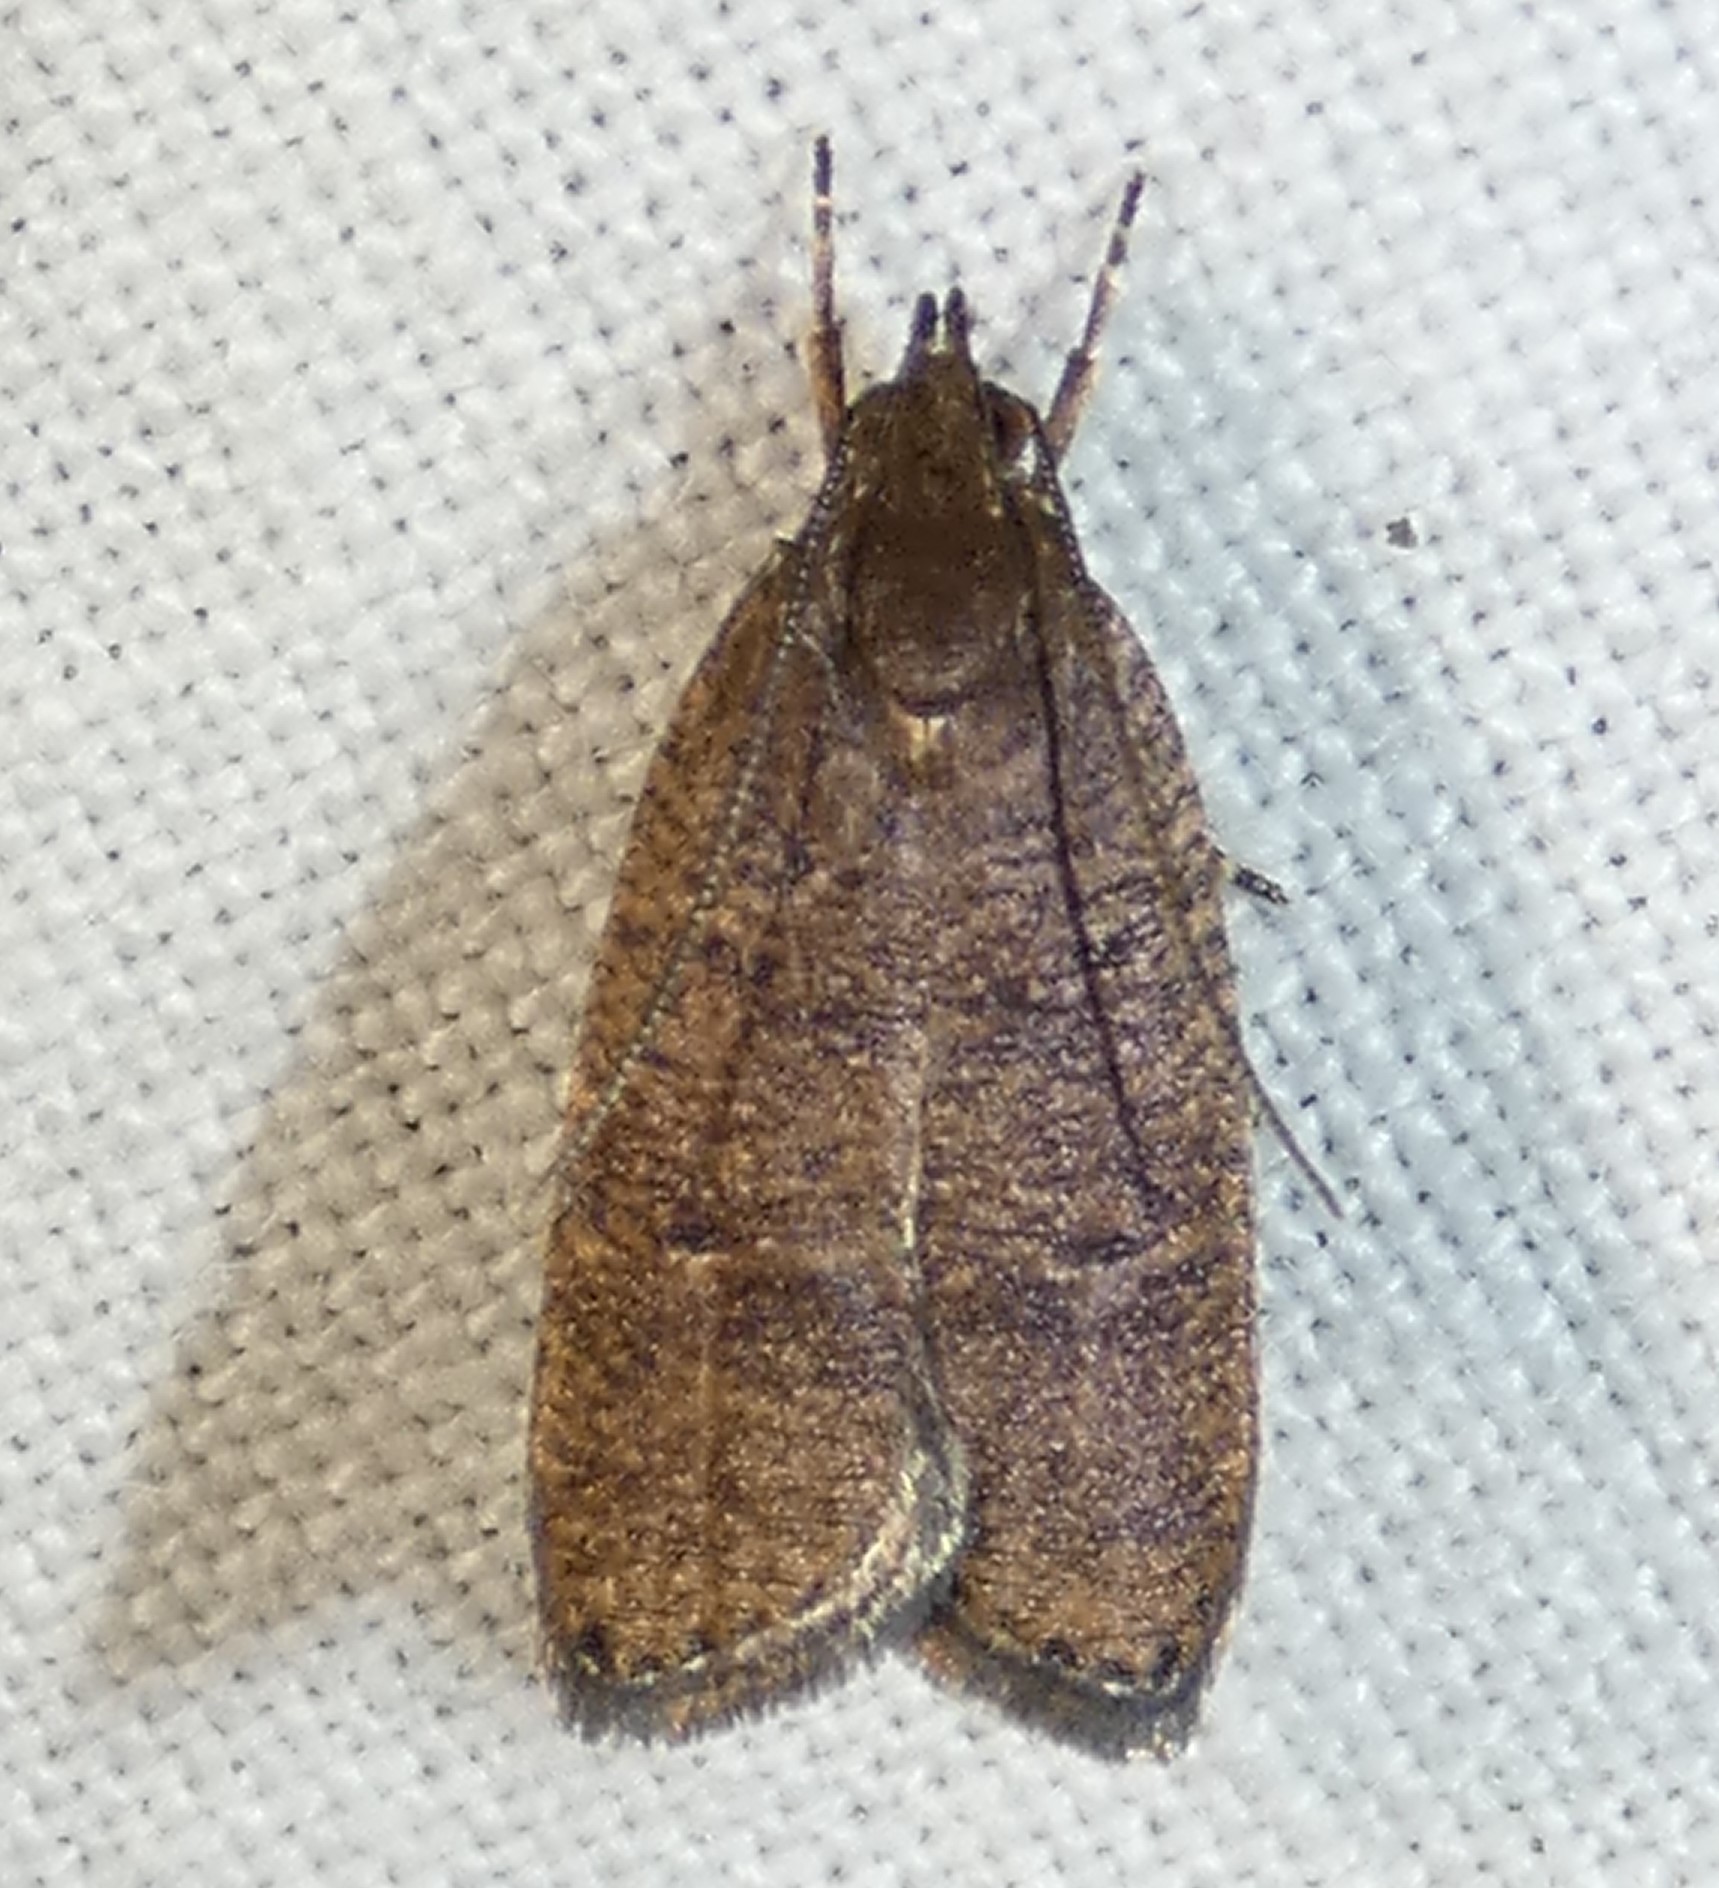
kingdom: Animalia
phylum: Arthropoda
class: Insecta
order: Lepidoptera
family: Depressariidae
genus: Psilocorsis
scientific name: Psilocorsis reflexella
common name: Dotted leaftier moth
